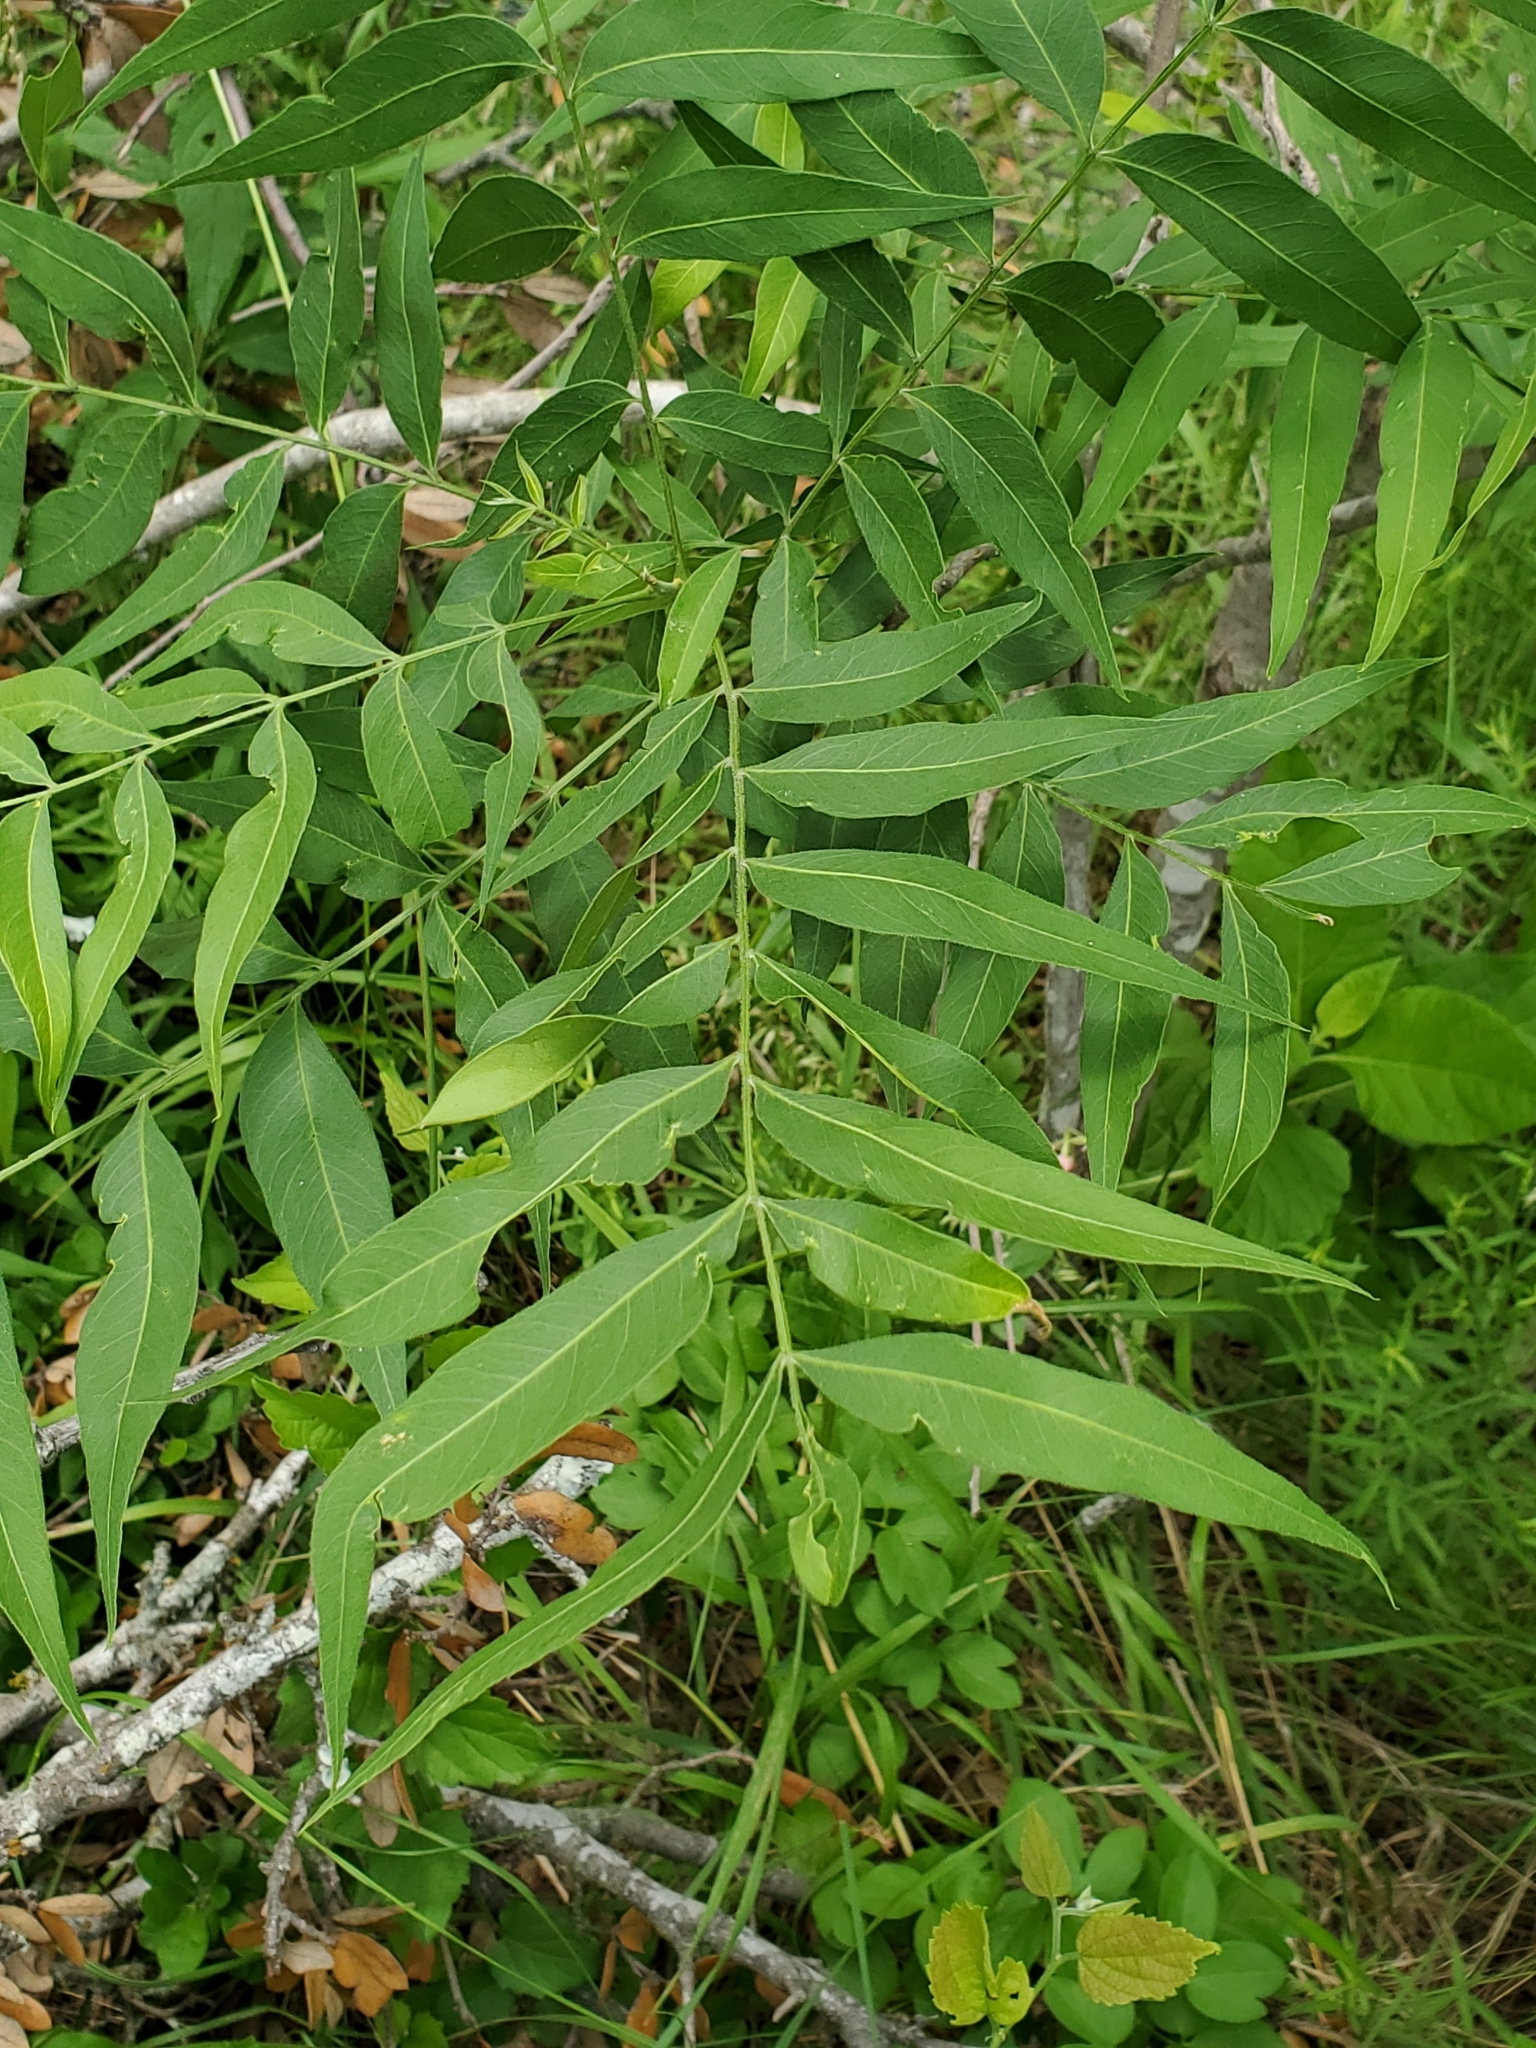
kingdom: Plantae
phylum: Tracheophyta
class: Magnoliopsida
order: Sapindales
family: Sapindaceae
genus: Sapindus
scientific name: Sapindus drummondii
